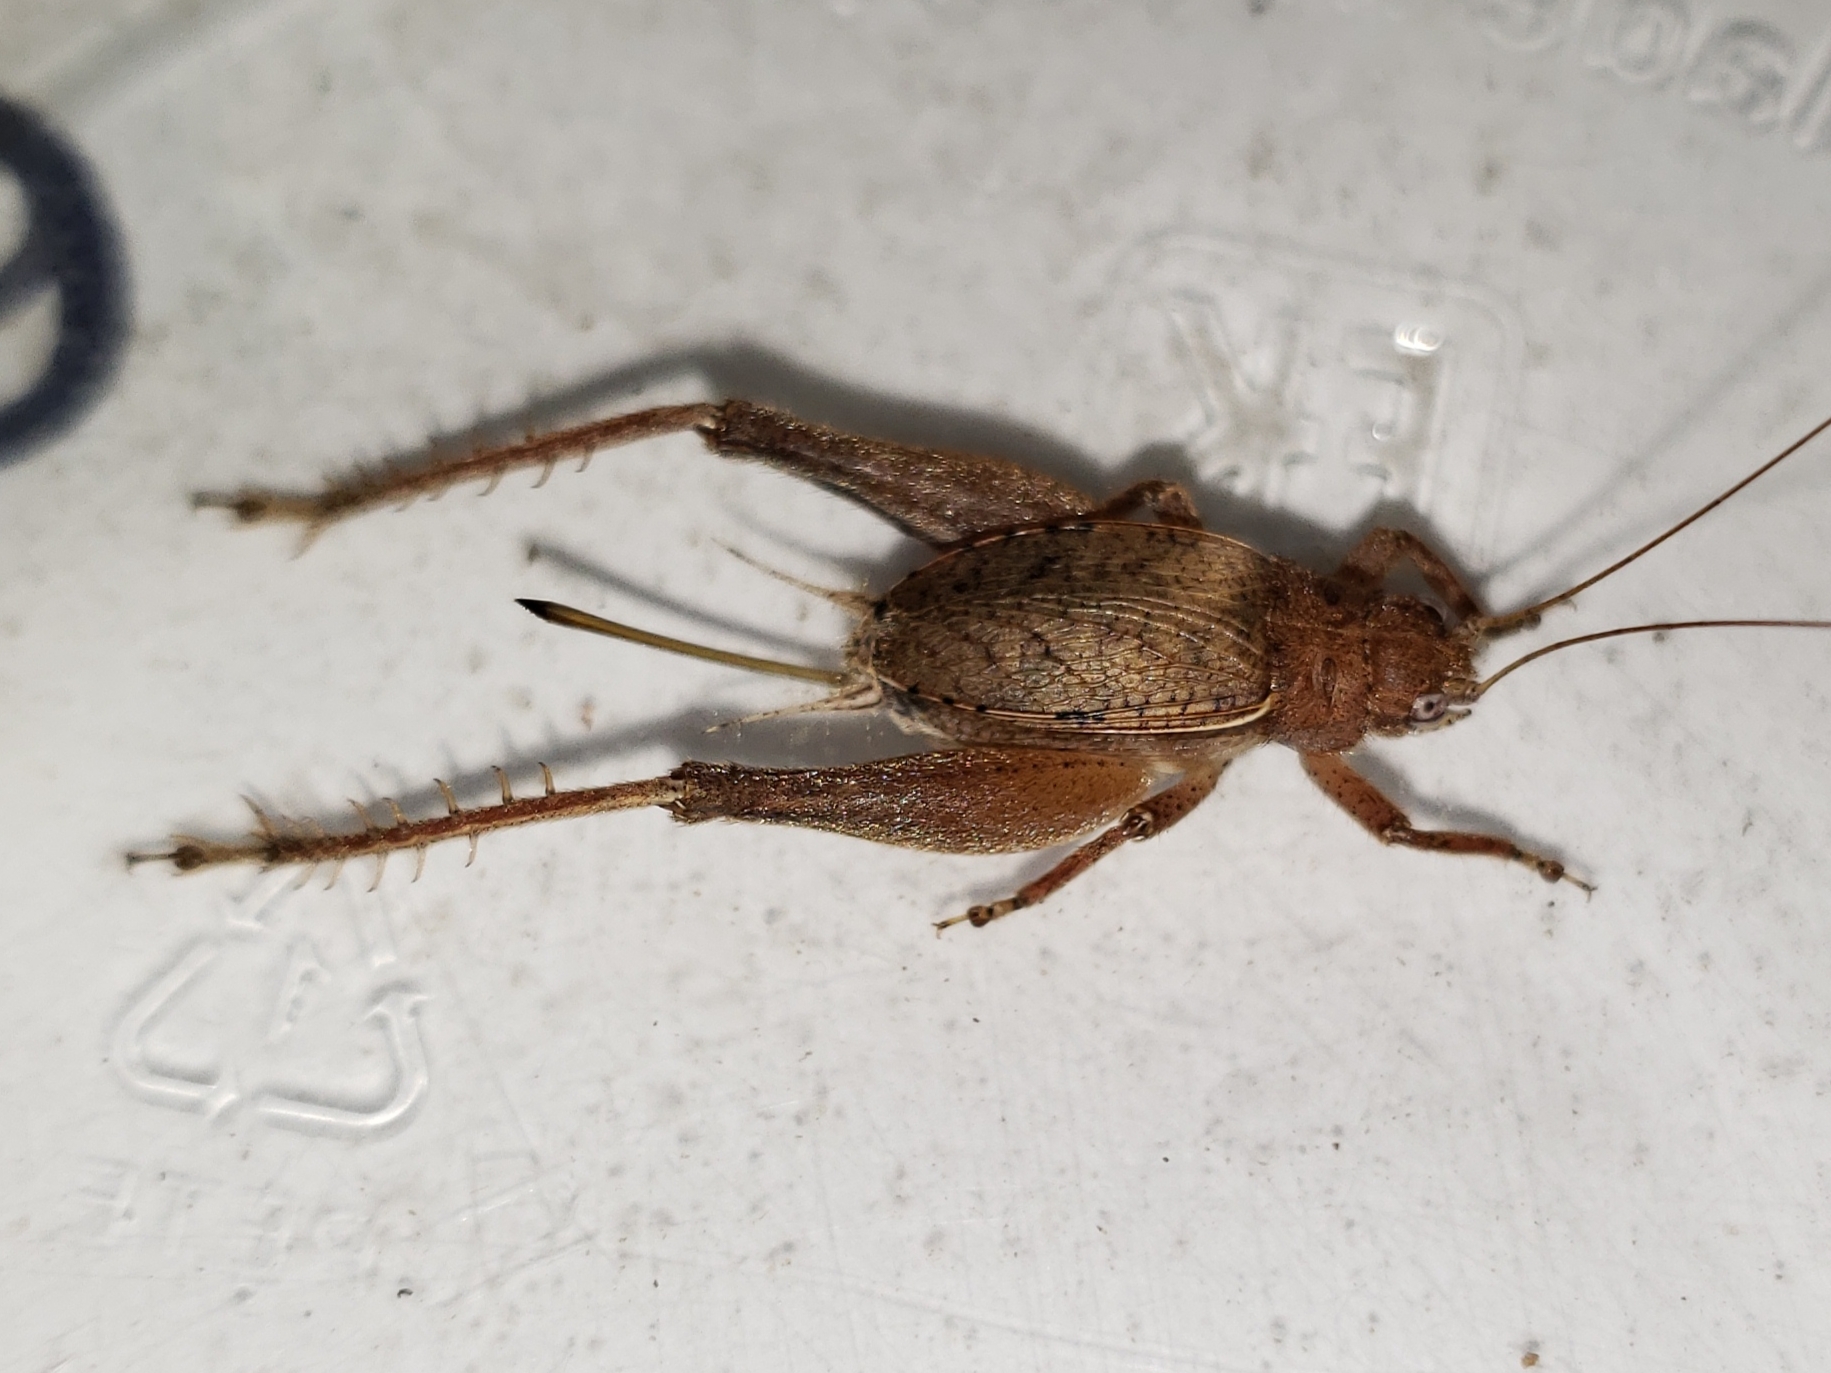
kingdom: Animalia
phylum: Arthropoda
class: Insecta
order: Orthoptera
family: Gryllidae
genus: Hapithus
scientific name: Hapithus agitator
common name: Restless bush cricket
